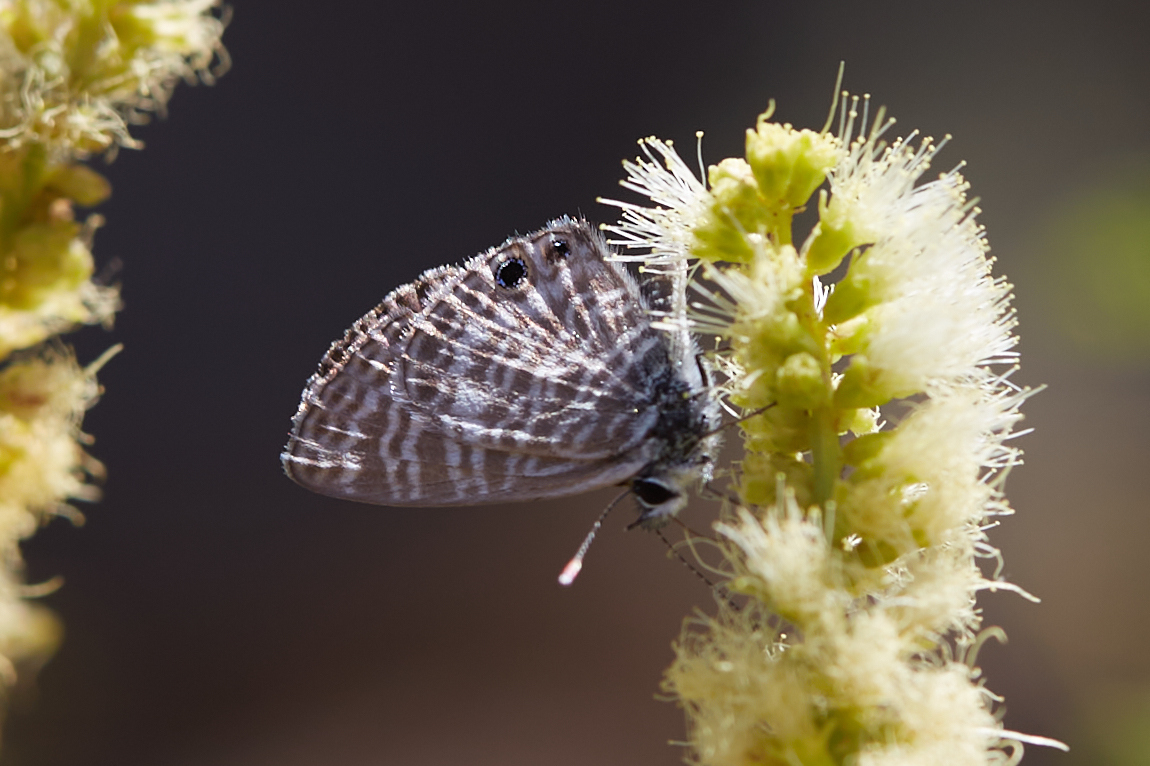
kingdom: Animalia
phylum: Arthropoda
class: Insecta
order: Lepidoptera
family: Lycaenidae
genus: Leptotes
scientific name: Leptotes marina
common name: Marine blue
